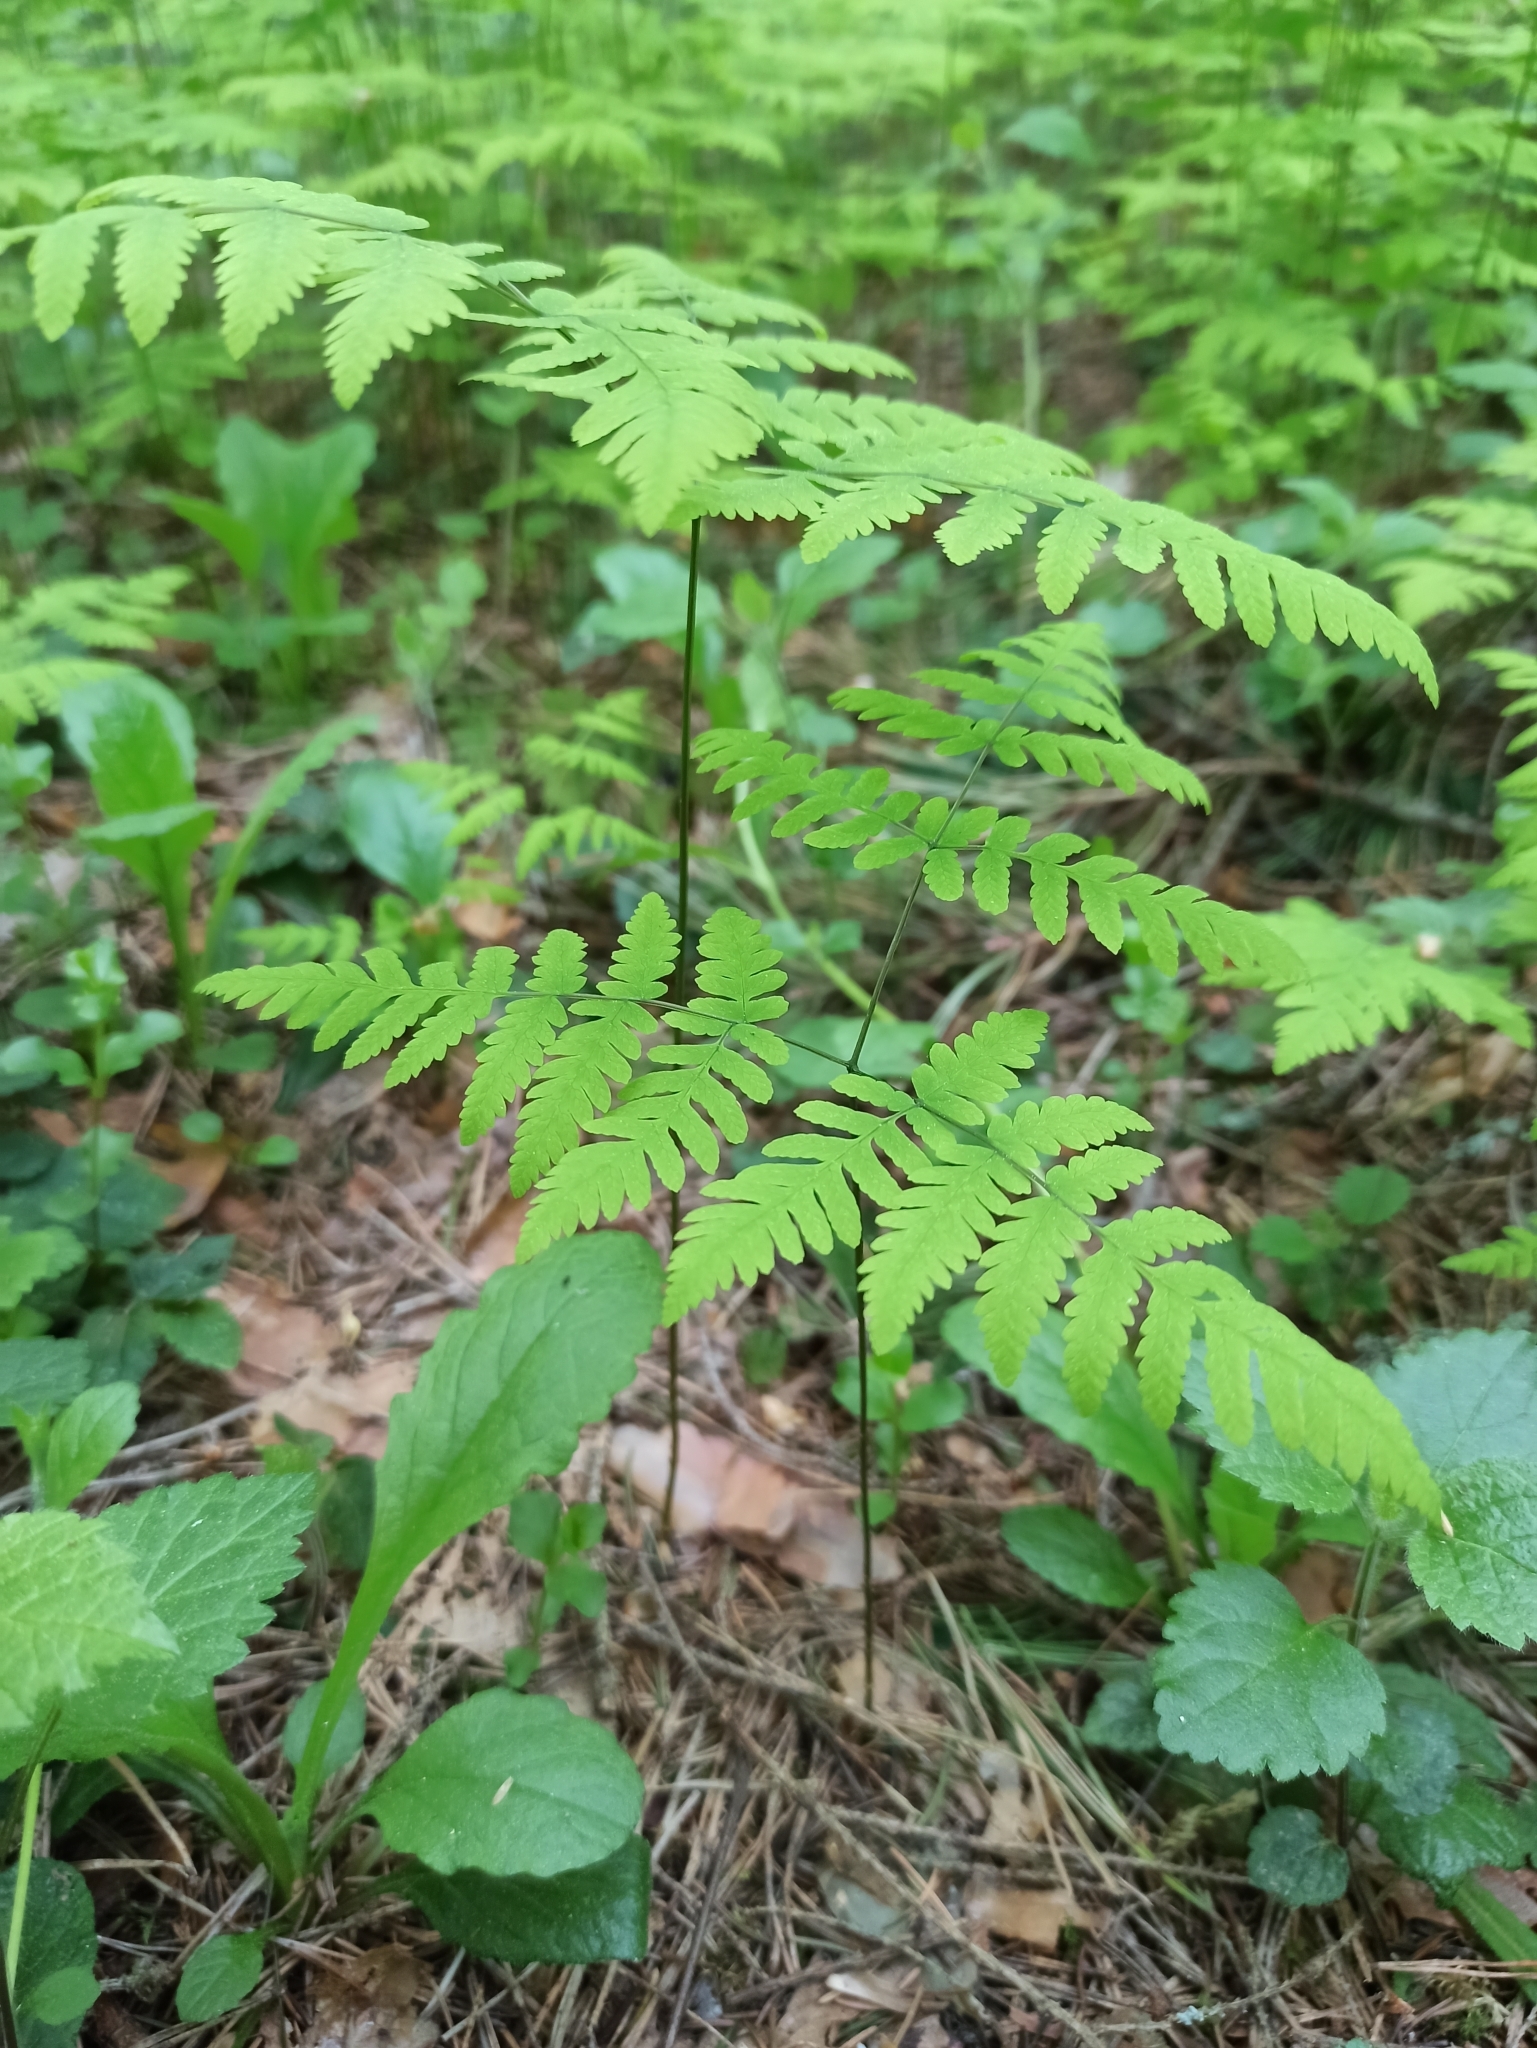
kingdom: Plantae
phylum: Tracheophyta
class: Polypodiopsida
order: Polypodiales
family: Cystopteridaceae
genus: Gymnocarpium
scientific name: Gymnocarpium dryopteris
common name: Oak fern
